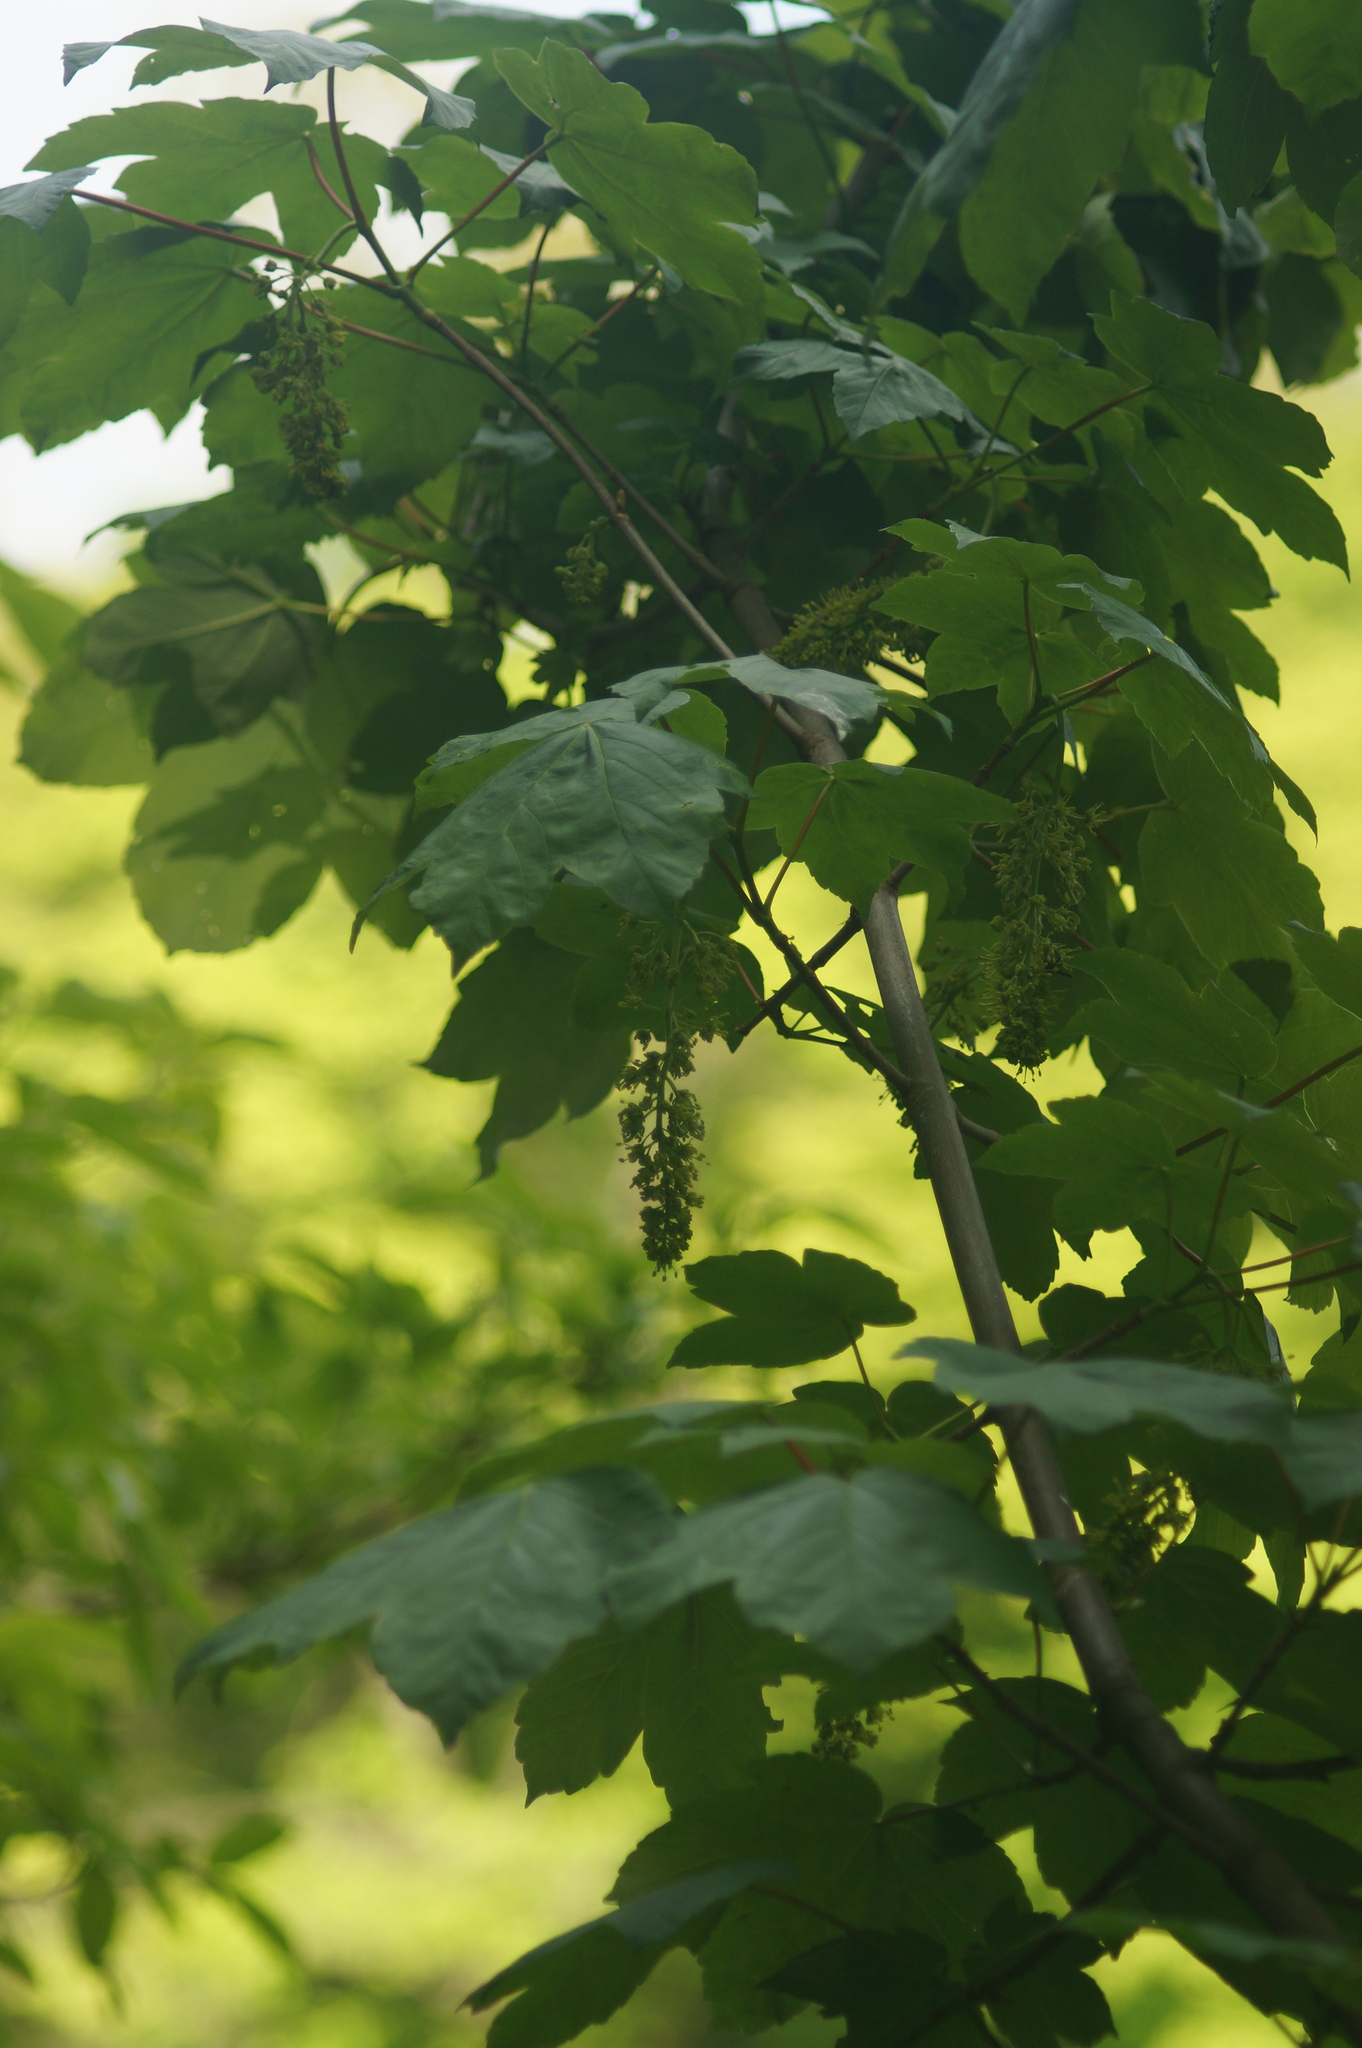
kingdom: Plantae
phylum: Tracheophyta
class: Magnoliopsida
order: Sapindales
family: Sapindaceae
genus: Acer
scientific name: Acer pseudoplatanus
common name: Sycamore
